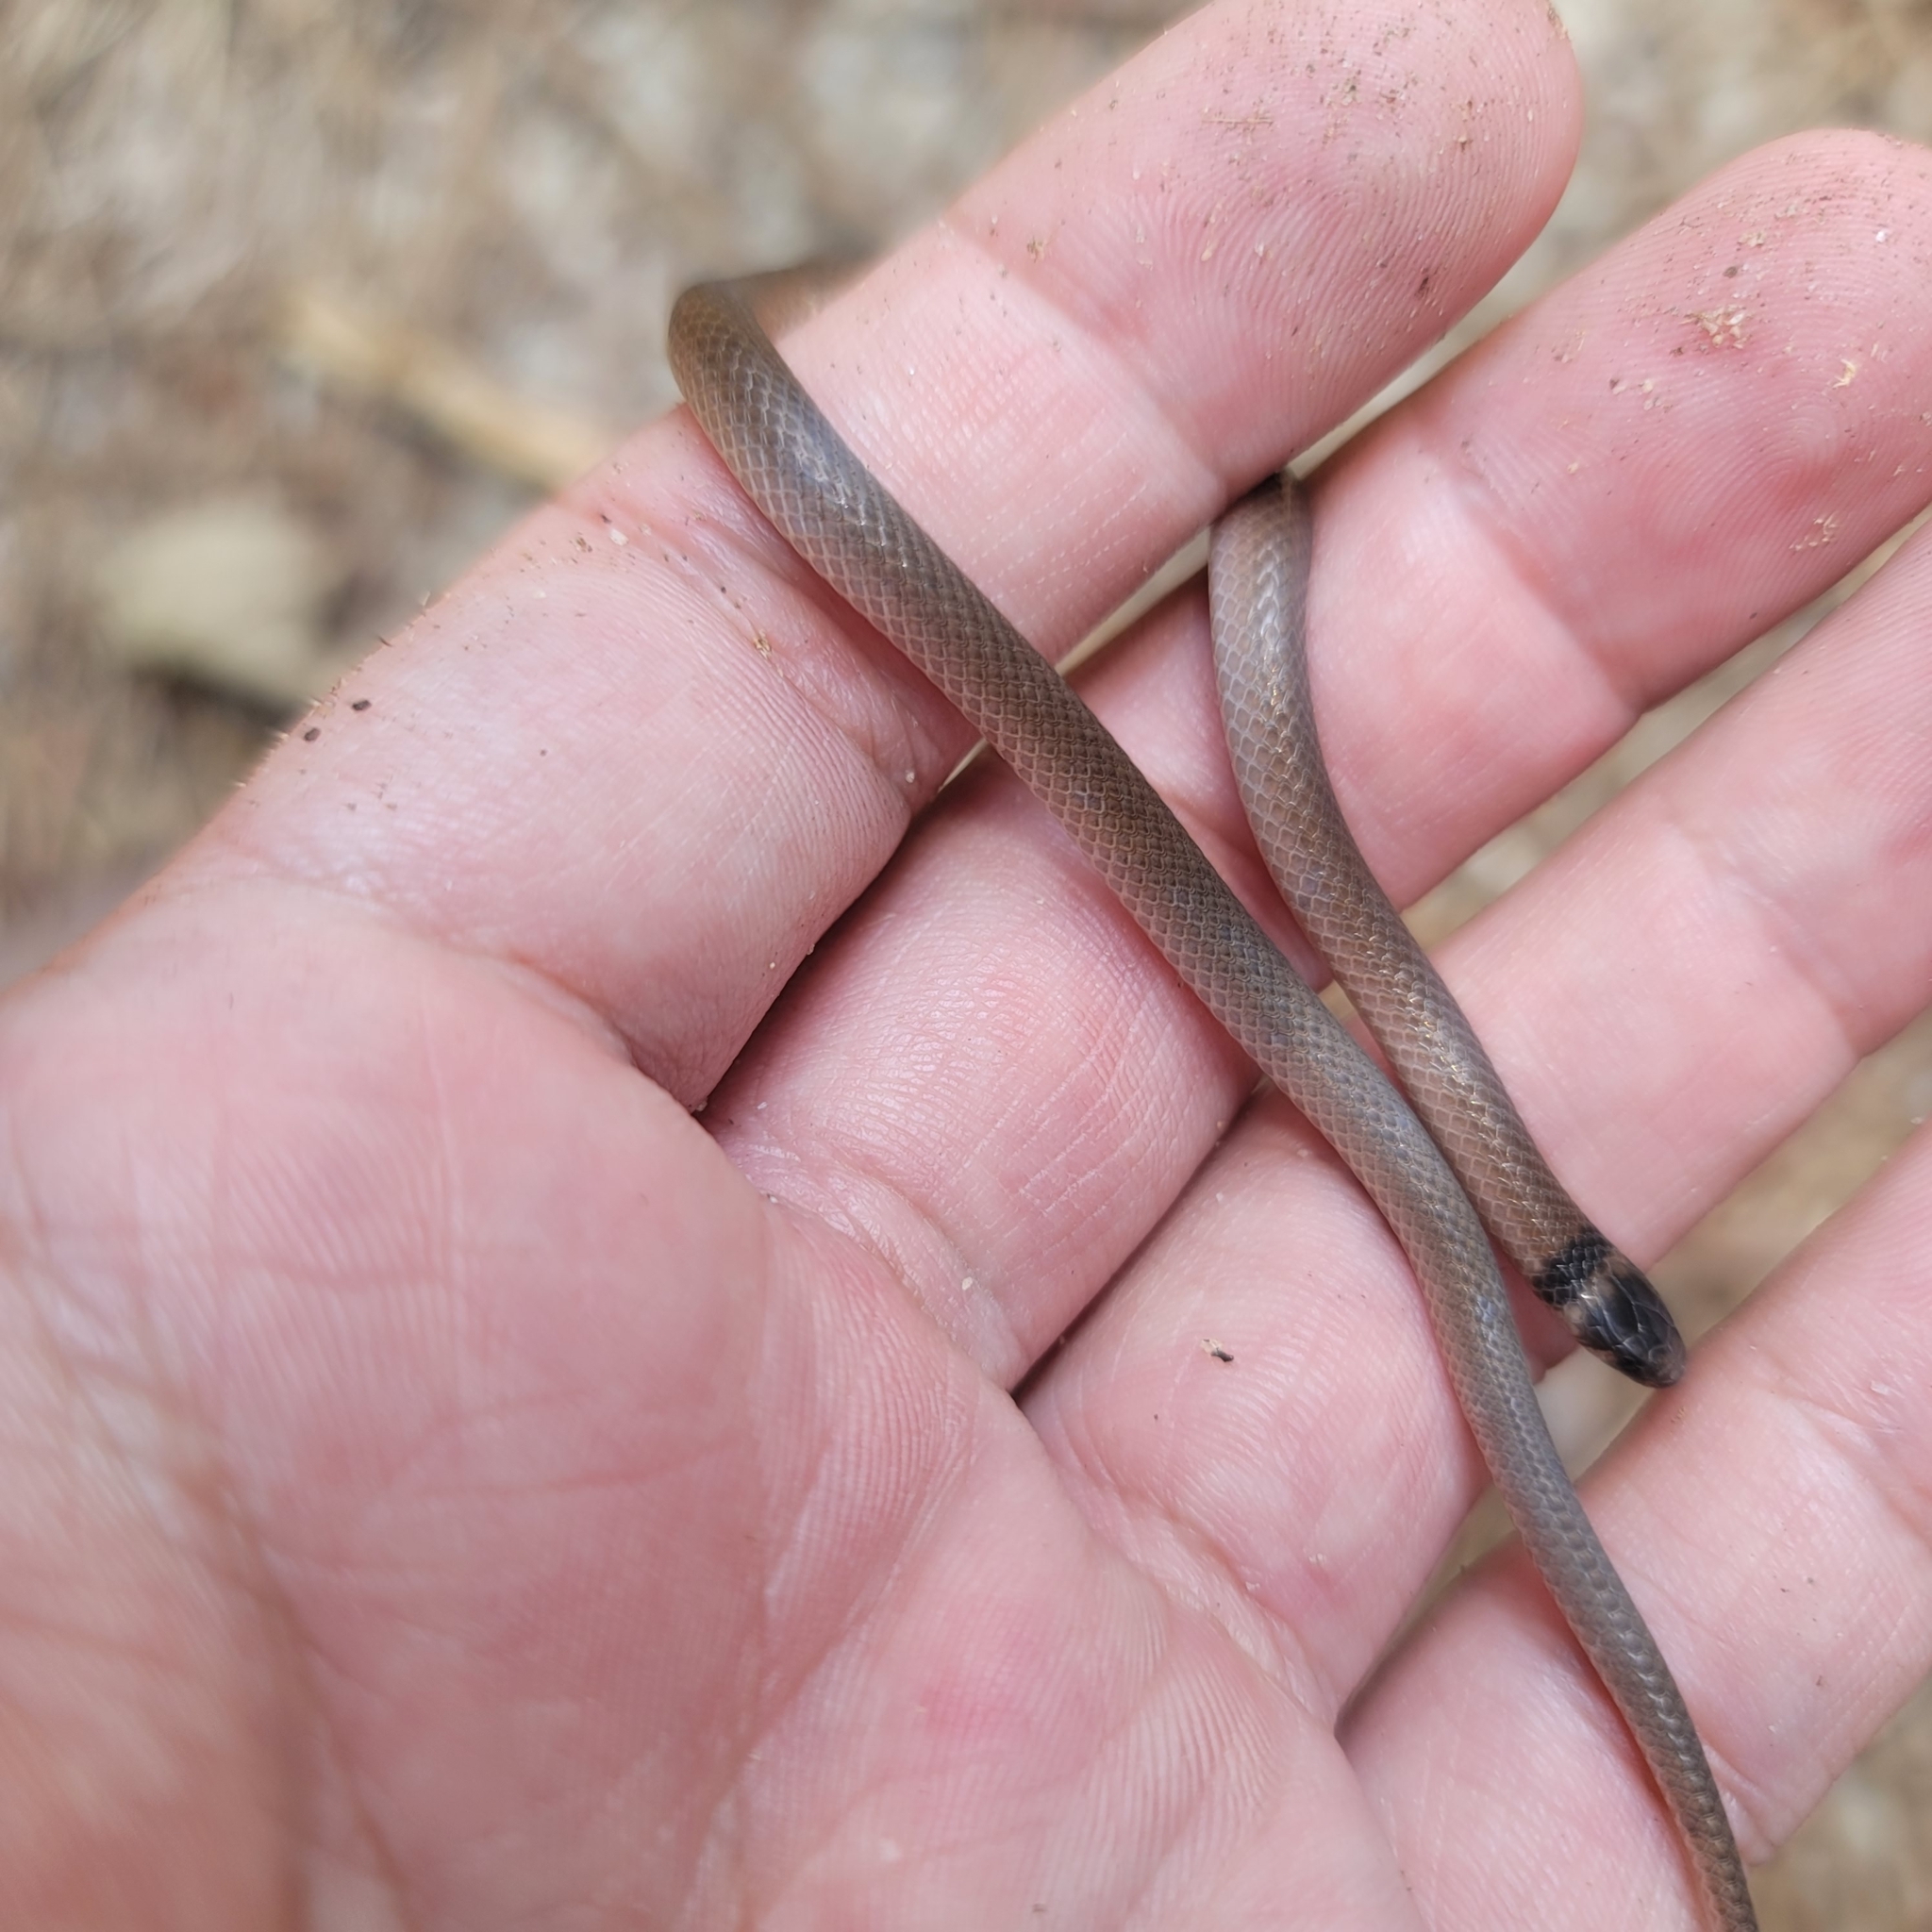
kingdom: Animalia
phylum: Chordata
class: Squamata
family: Colubridae
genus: Tantilla
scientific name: Tantilla coronata
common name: Southeastern crowned snake
